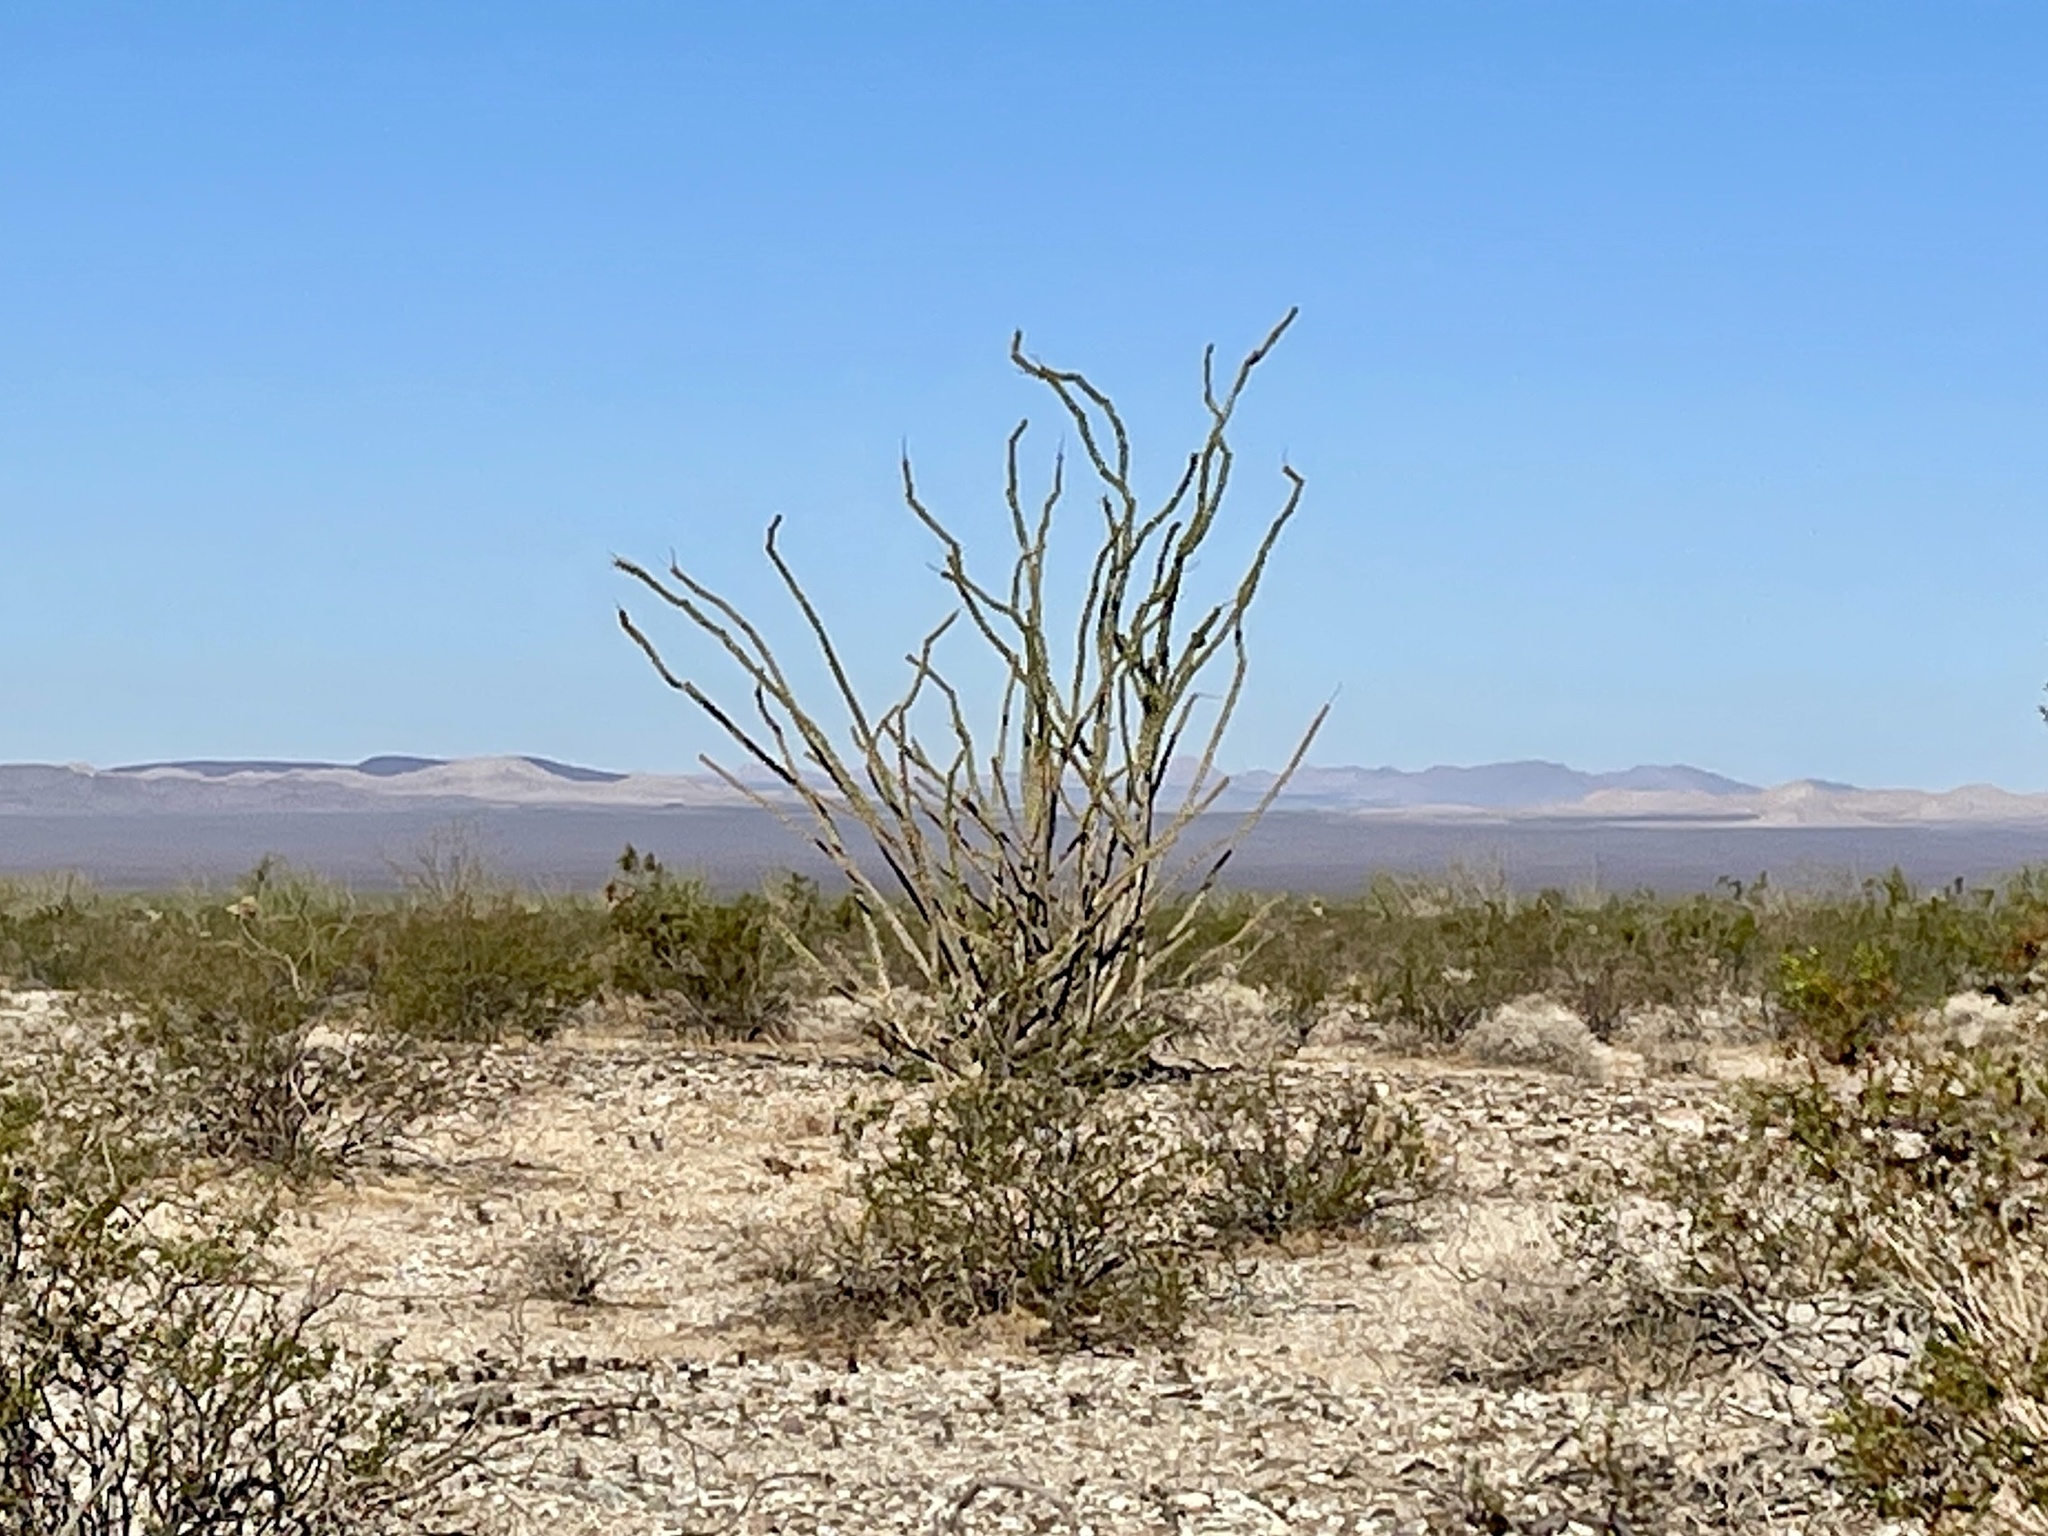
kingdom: Plantae
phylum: Tracheophyta
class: Magnoliopsida
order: Ericales
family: Fouquieriaceae
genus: Fouquieria
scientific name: Fouquieria splendens
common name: Vine-cactus
